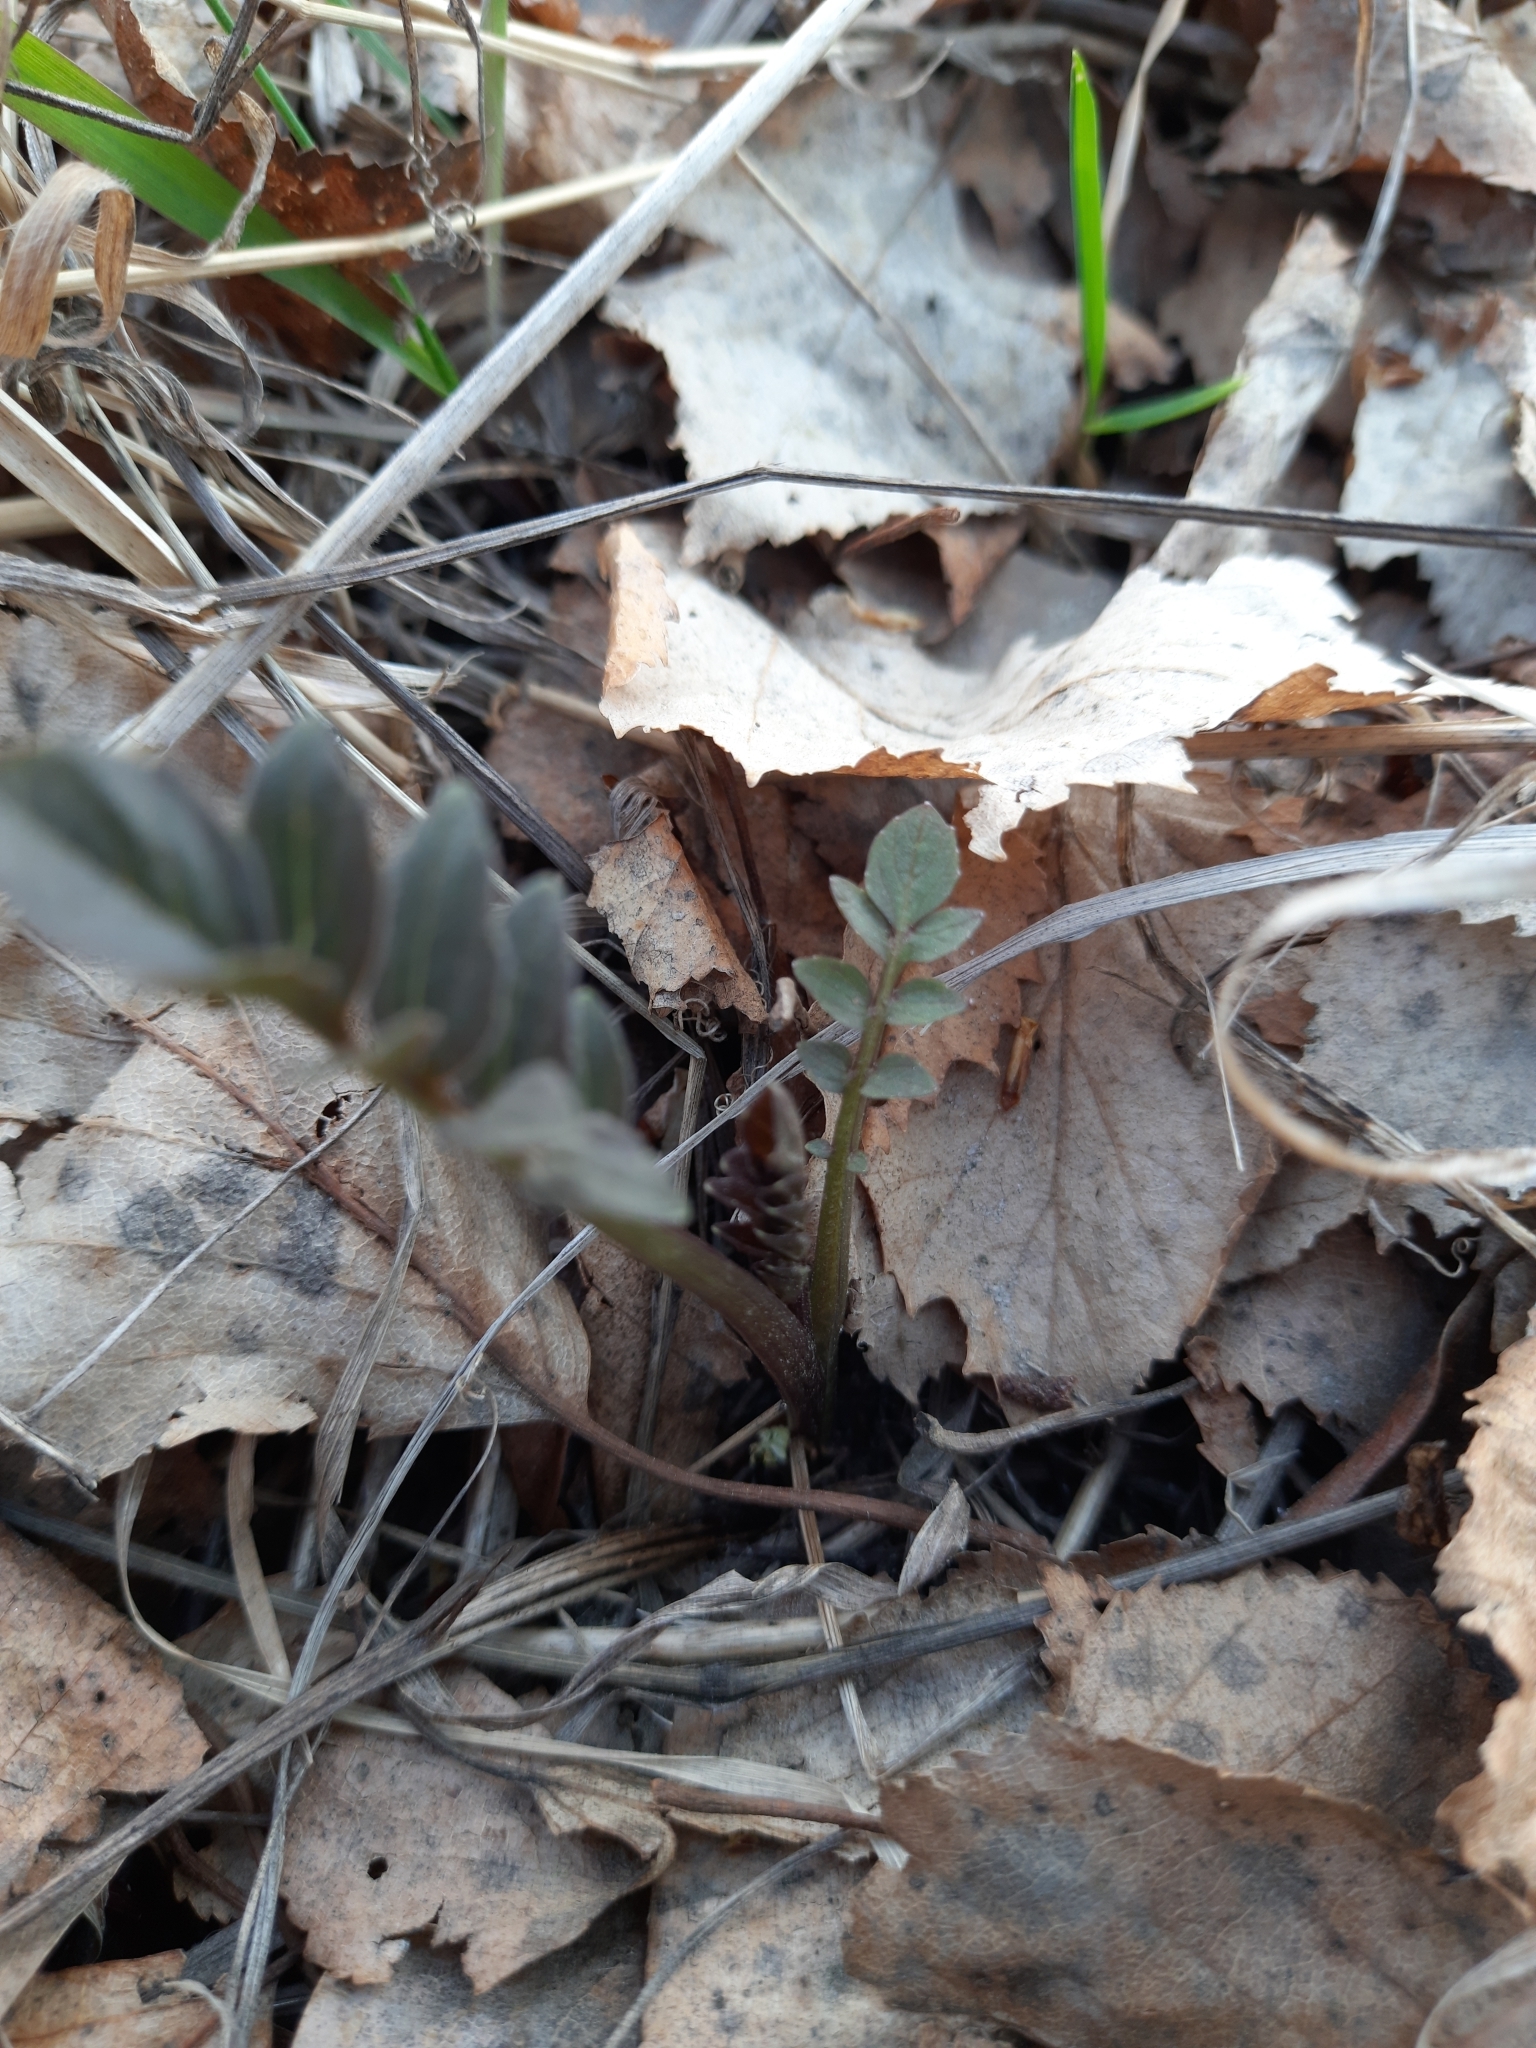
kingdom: Plantae
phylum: Tracheophyta
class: Magnoliopsida
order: Dipsacales
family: Caprifoliaceae
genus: Valeriana
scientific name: Valeriana wolgensis
